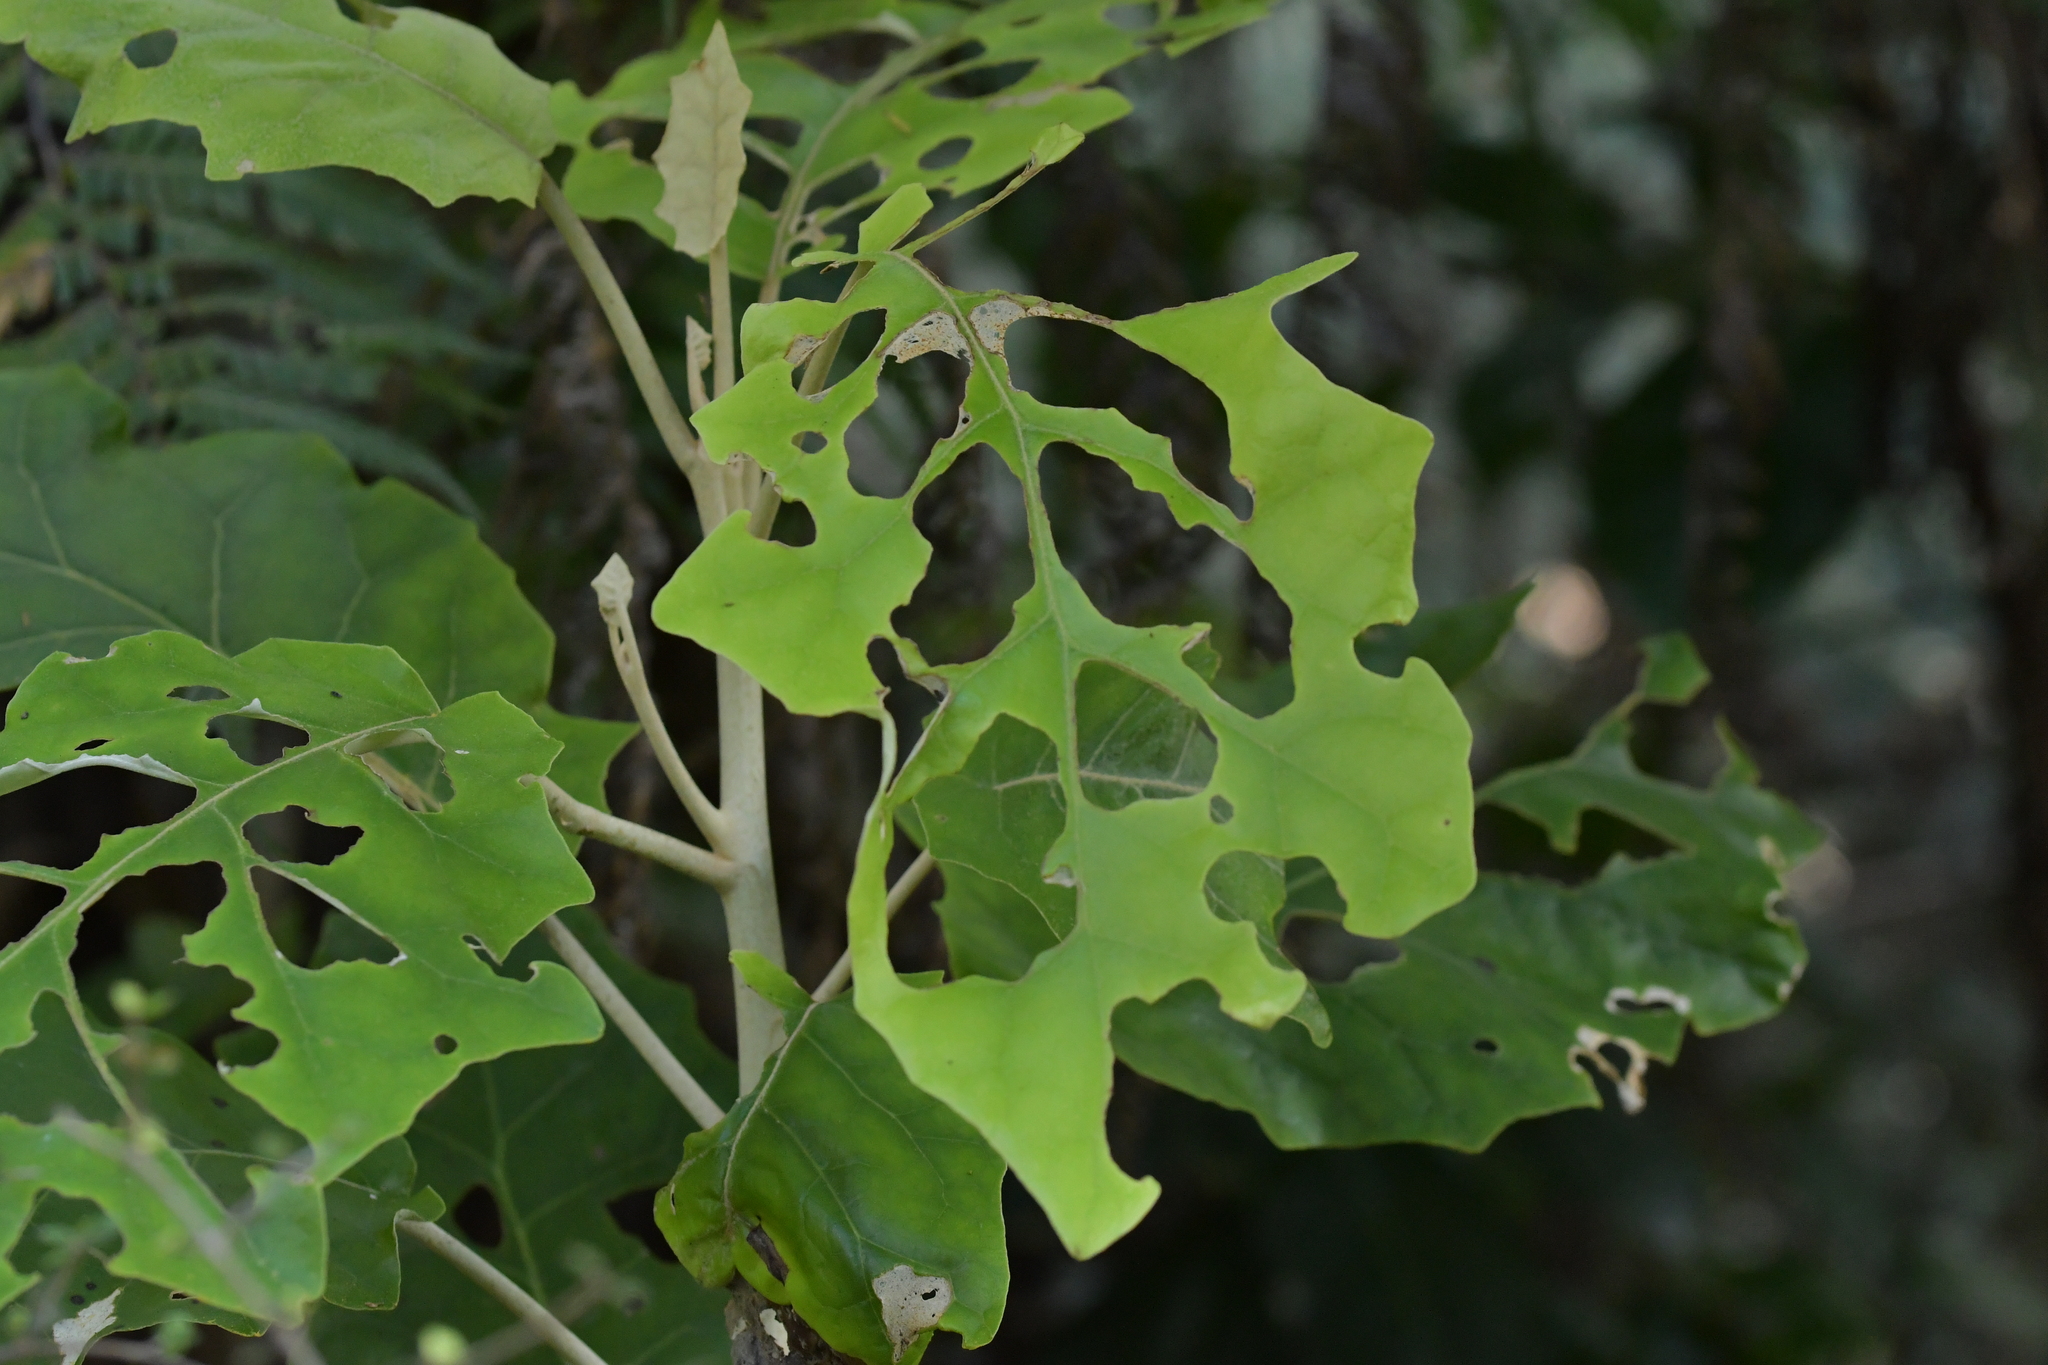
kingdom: Plantae
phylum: Tracheophyta
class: Magnoliopsida
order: Asterales
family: Asteraceae
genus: Brachyglottis
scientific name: Brachyglottis repanda
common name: Hedge ragwort
